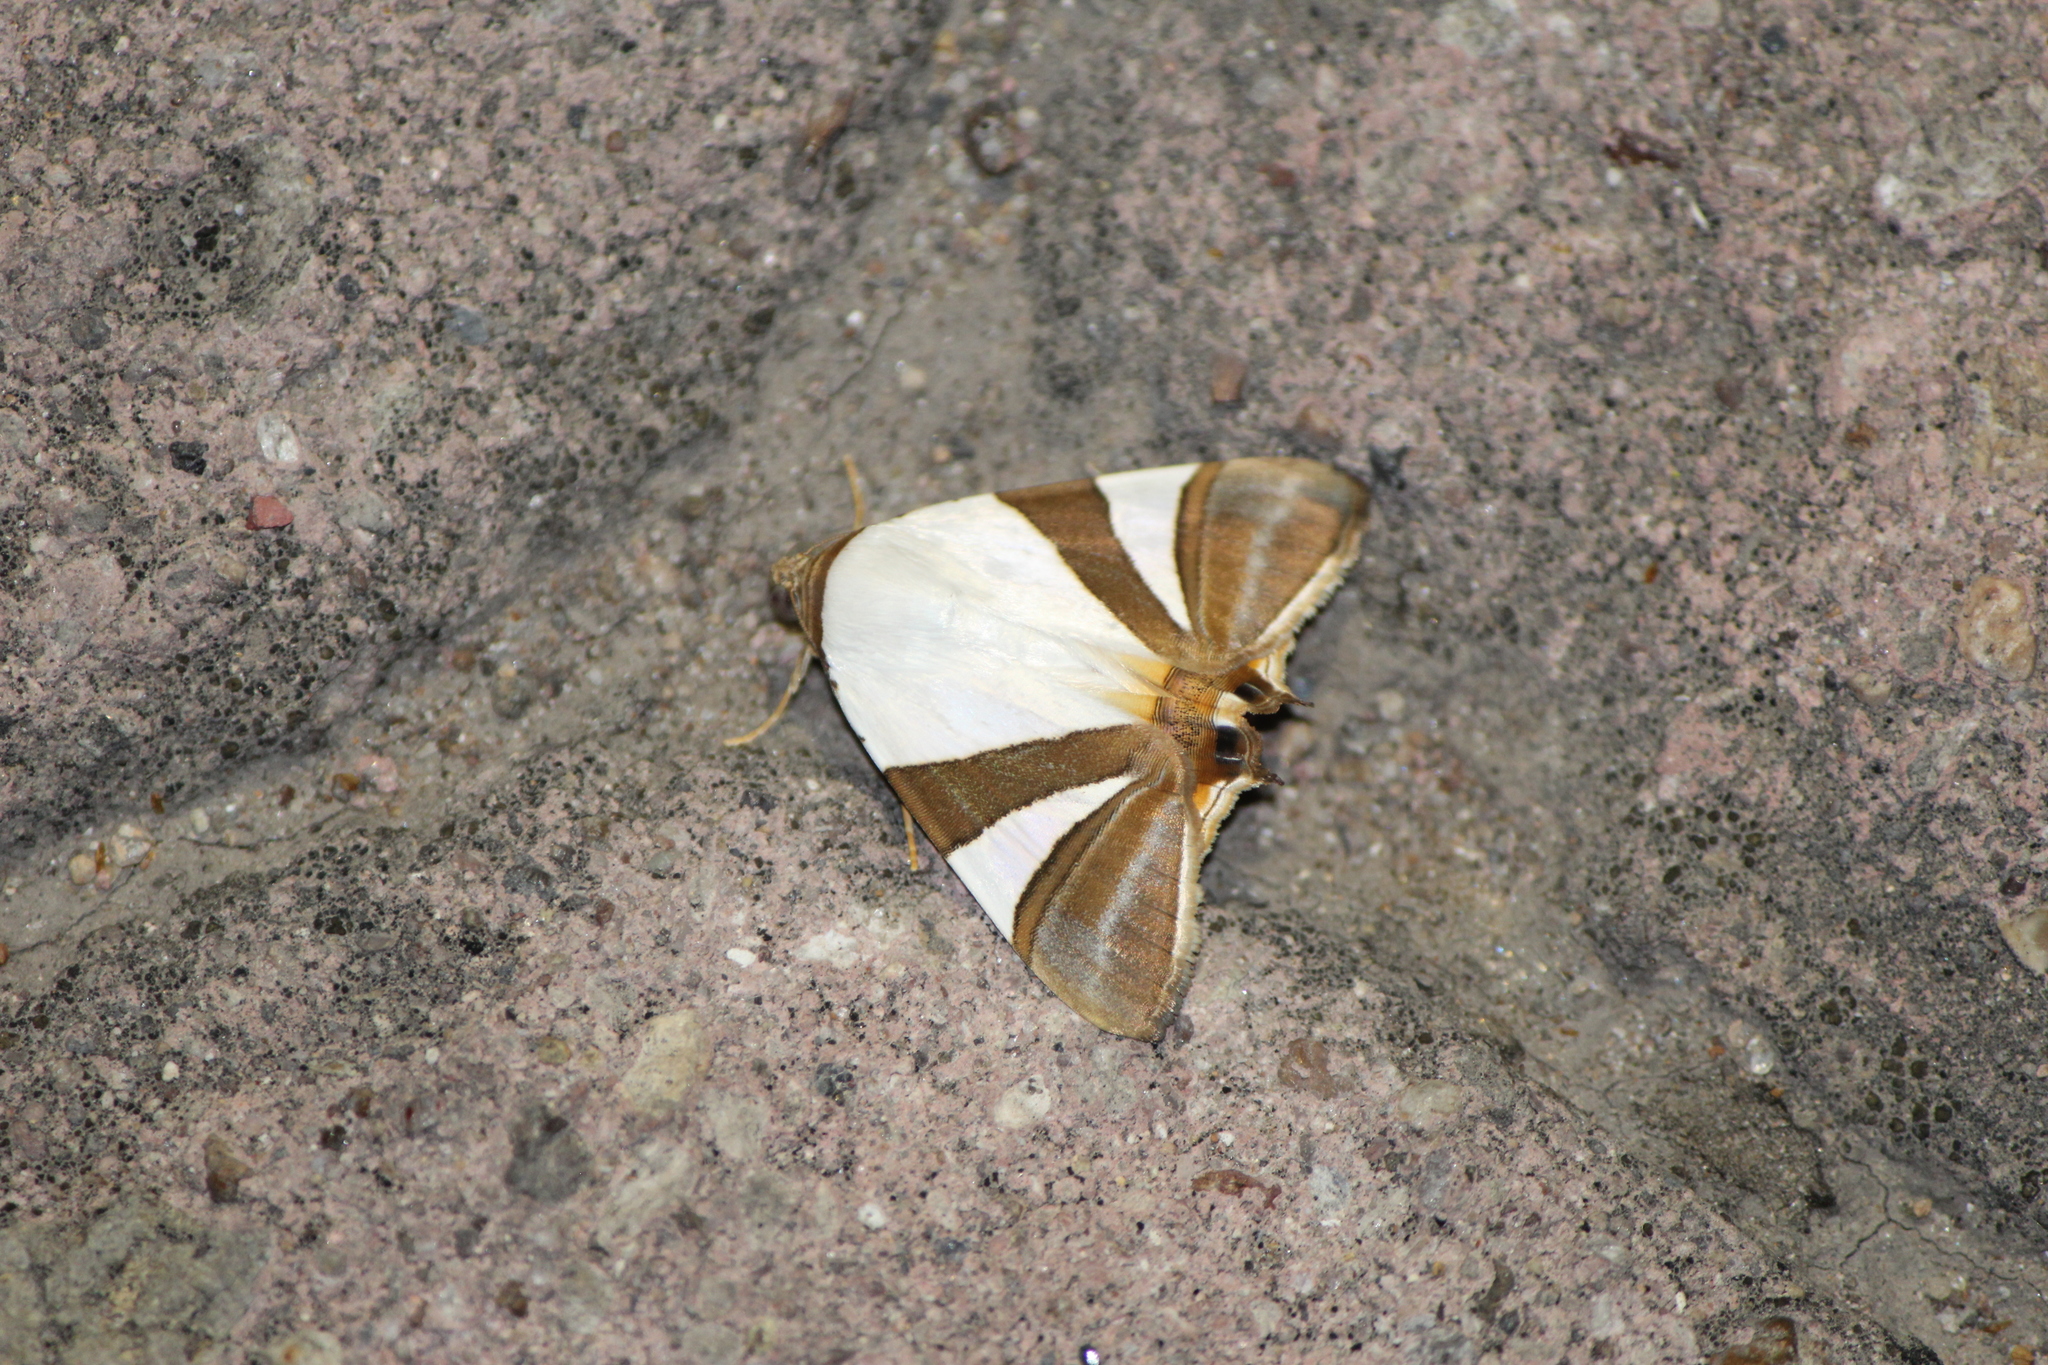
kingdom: Animalia
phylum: Arthropoda
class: Insecta
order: Lepidoptera
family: Erebidae
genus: Eulepidotis
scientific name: Eulepidotis rectimargo
